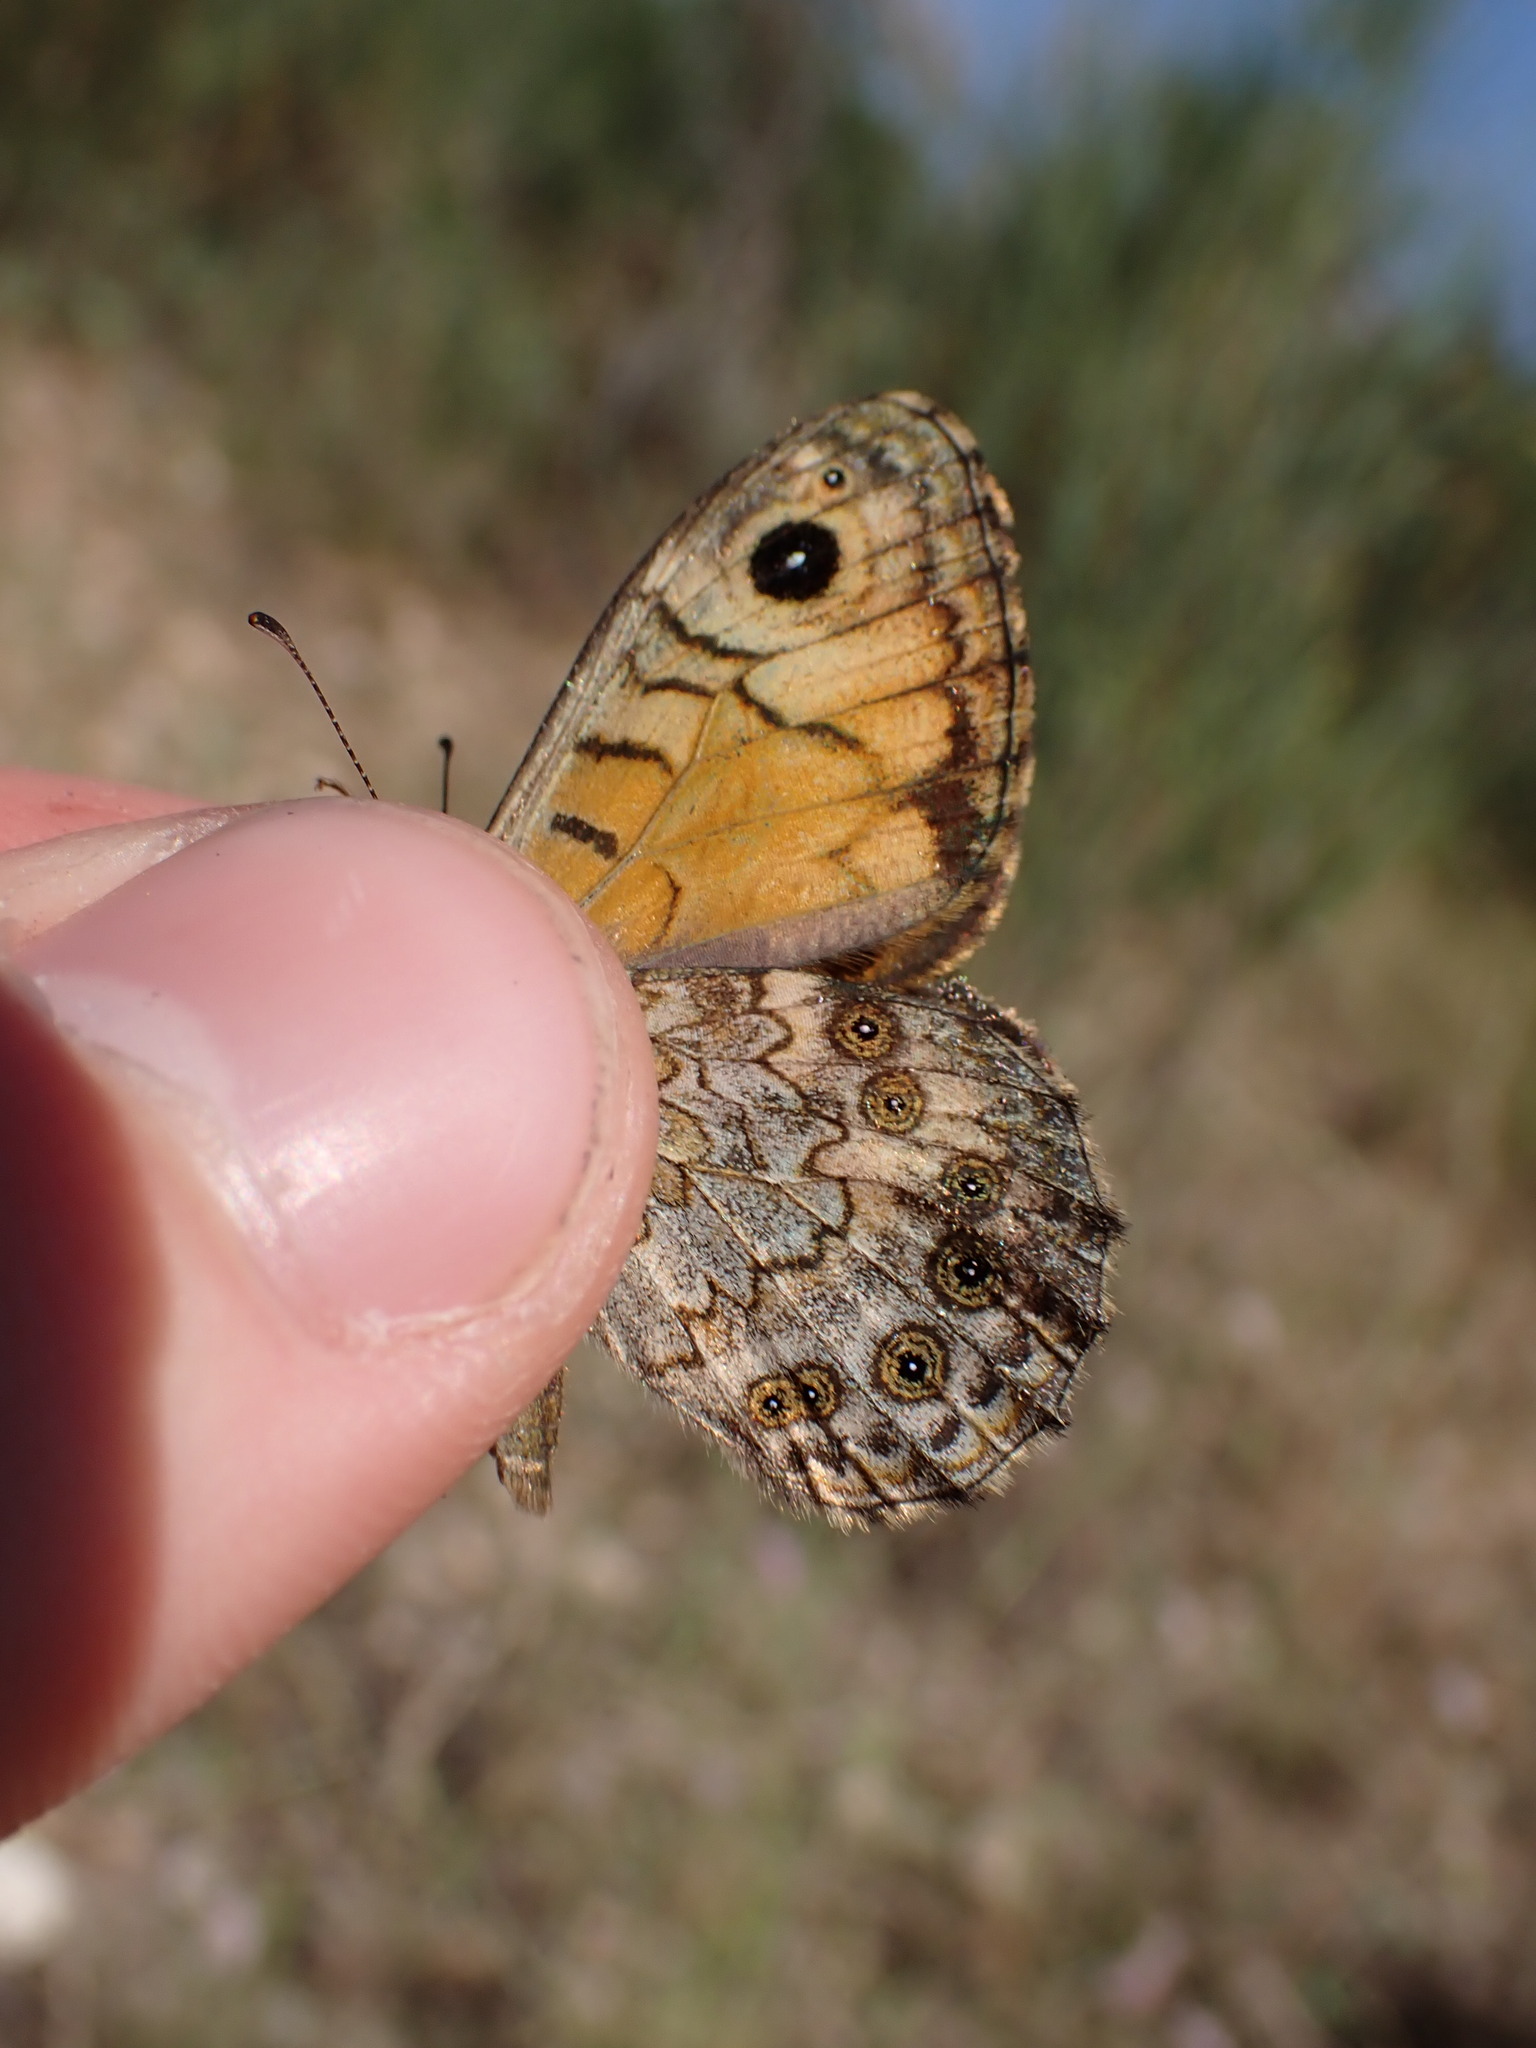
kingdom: Animalia
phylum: Arthropoda
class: Insecta
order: Lepidoptera
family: Nymphalidae
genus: Pararge
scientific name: Pararge Lasiommata megera
